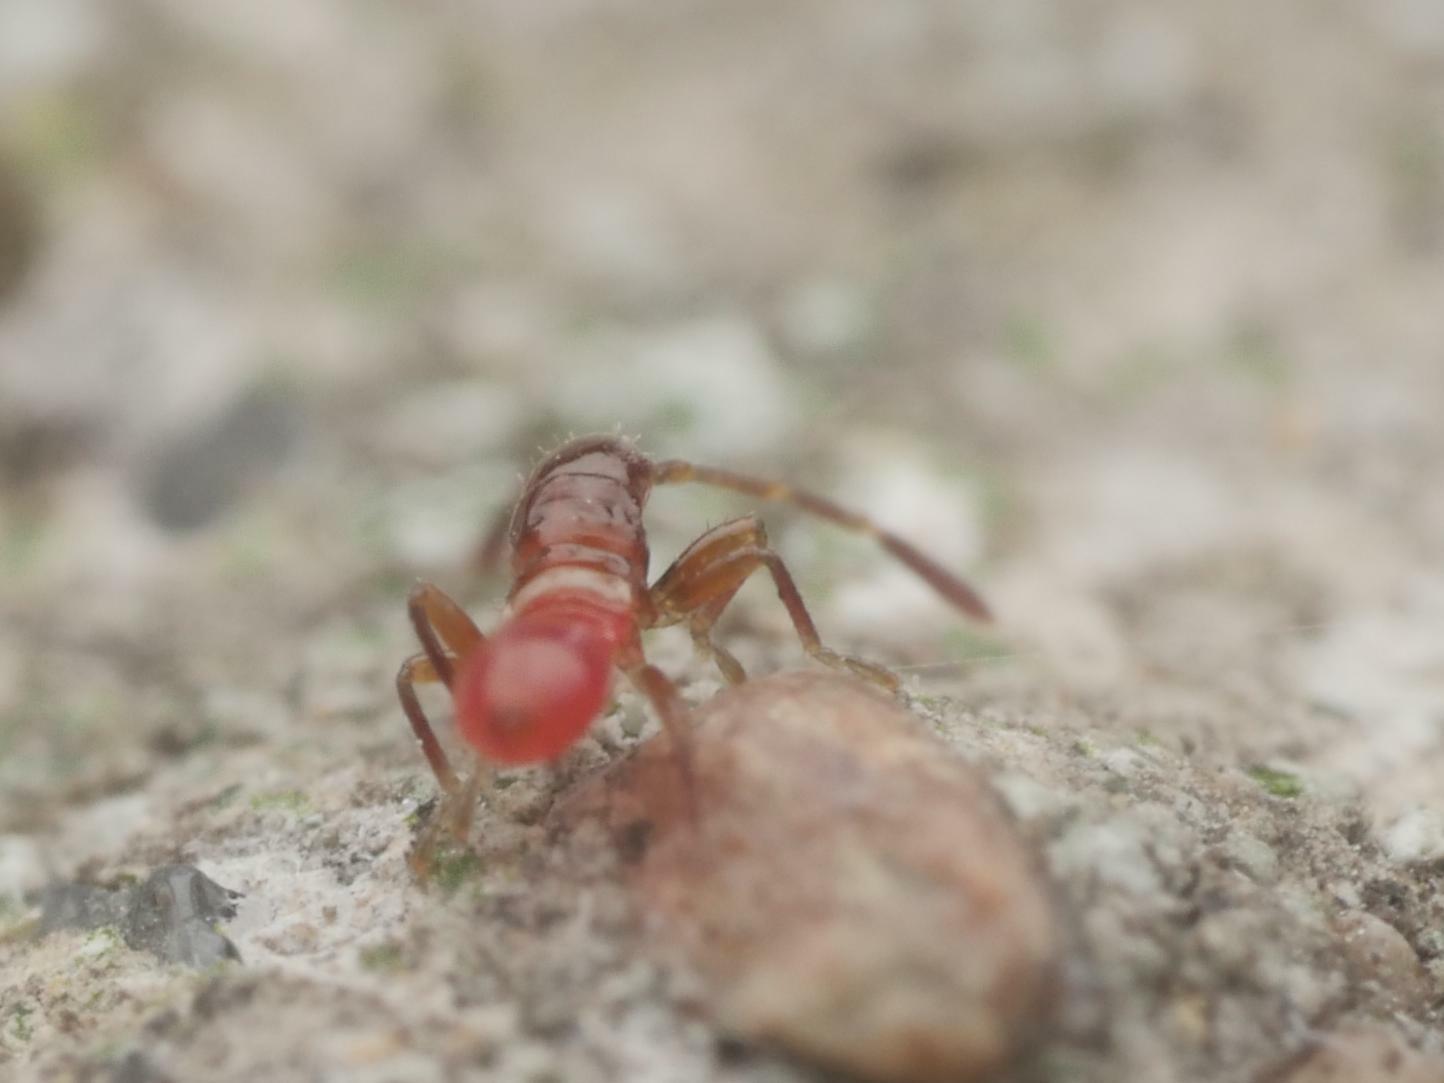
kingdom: Animalia
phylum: Arthropoda
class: Insecta
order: Hemiptera
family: Oxycarenidae
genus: Oxycarenus
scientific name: Oxycarenus lavaterae
